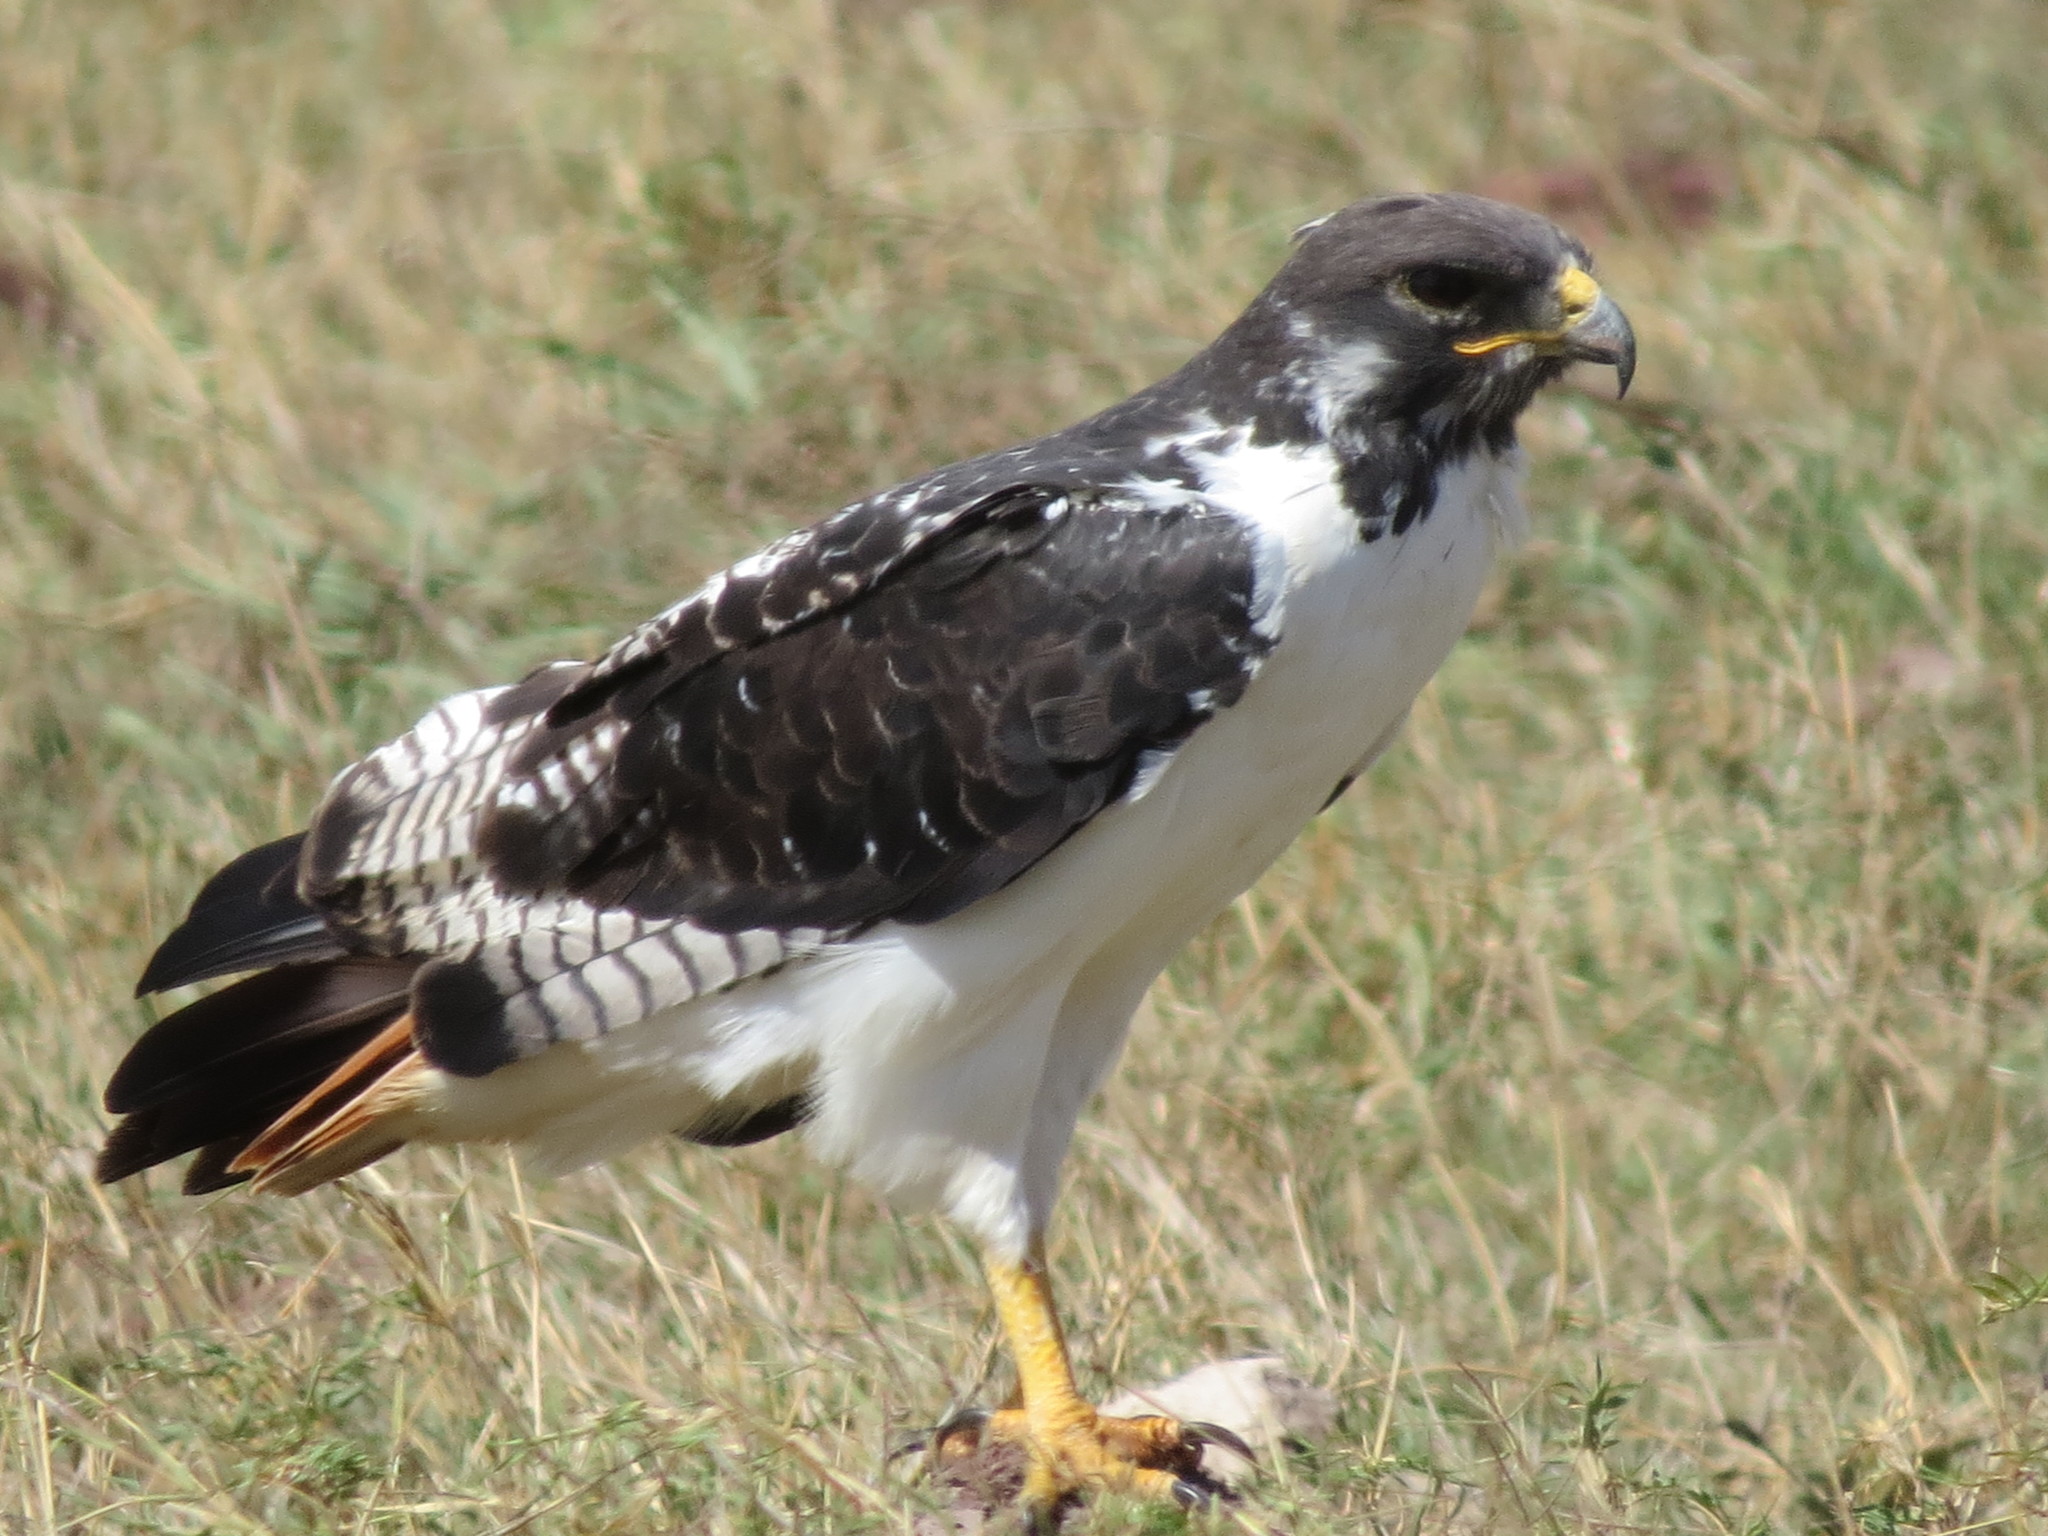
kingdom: Animalia
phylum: Chordata
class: Aves
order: Accipitriformes
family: Accipitridae
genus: Buteo
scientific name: Buteo augur
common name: Augur buzzard
